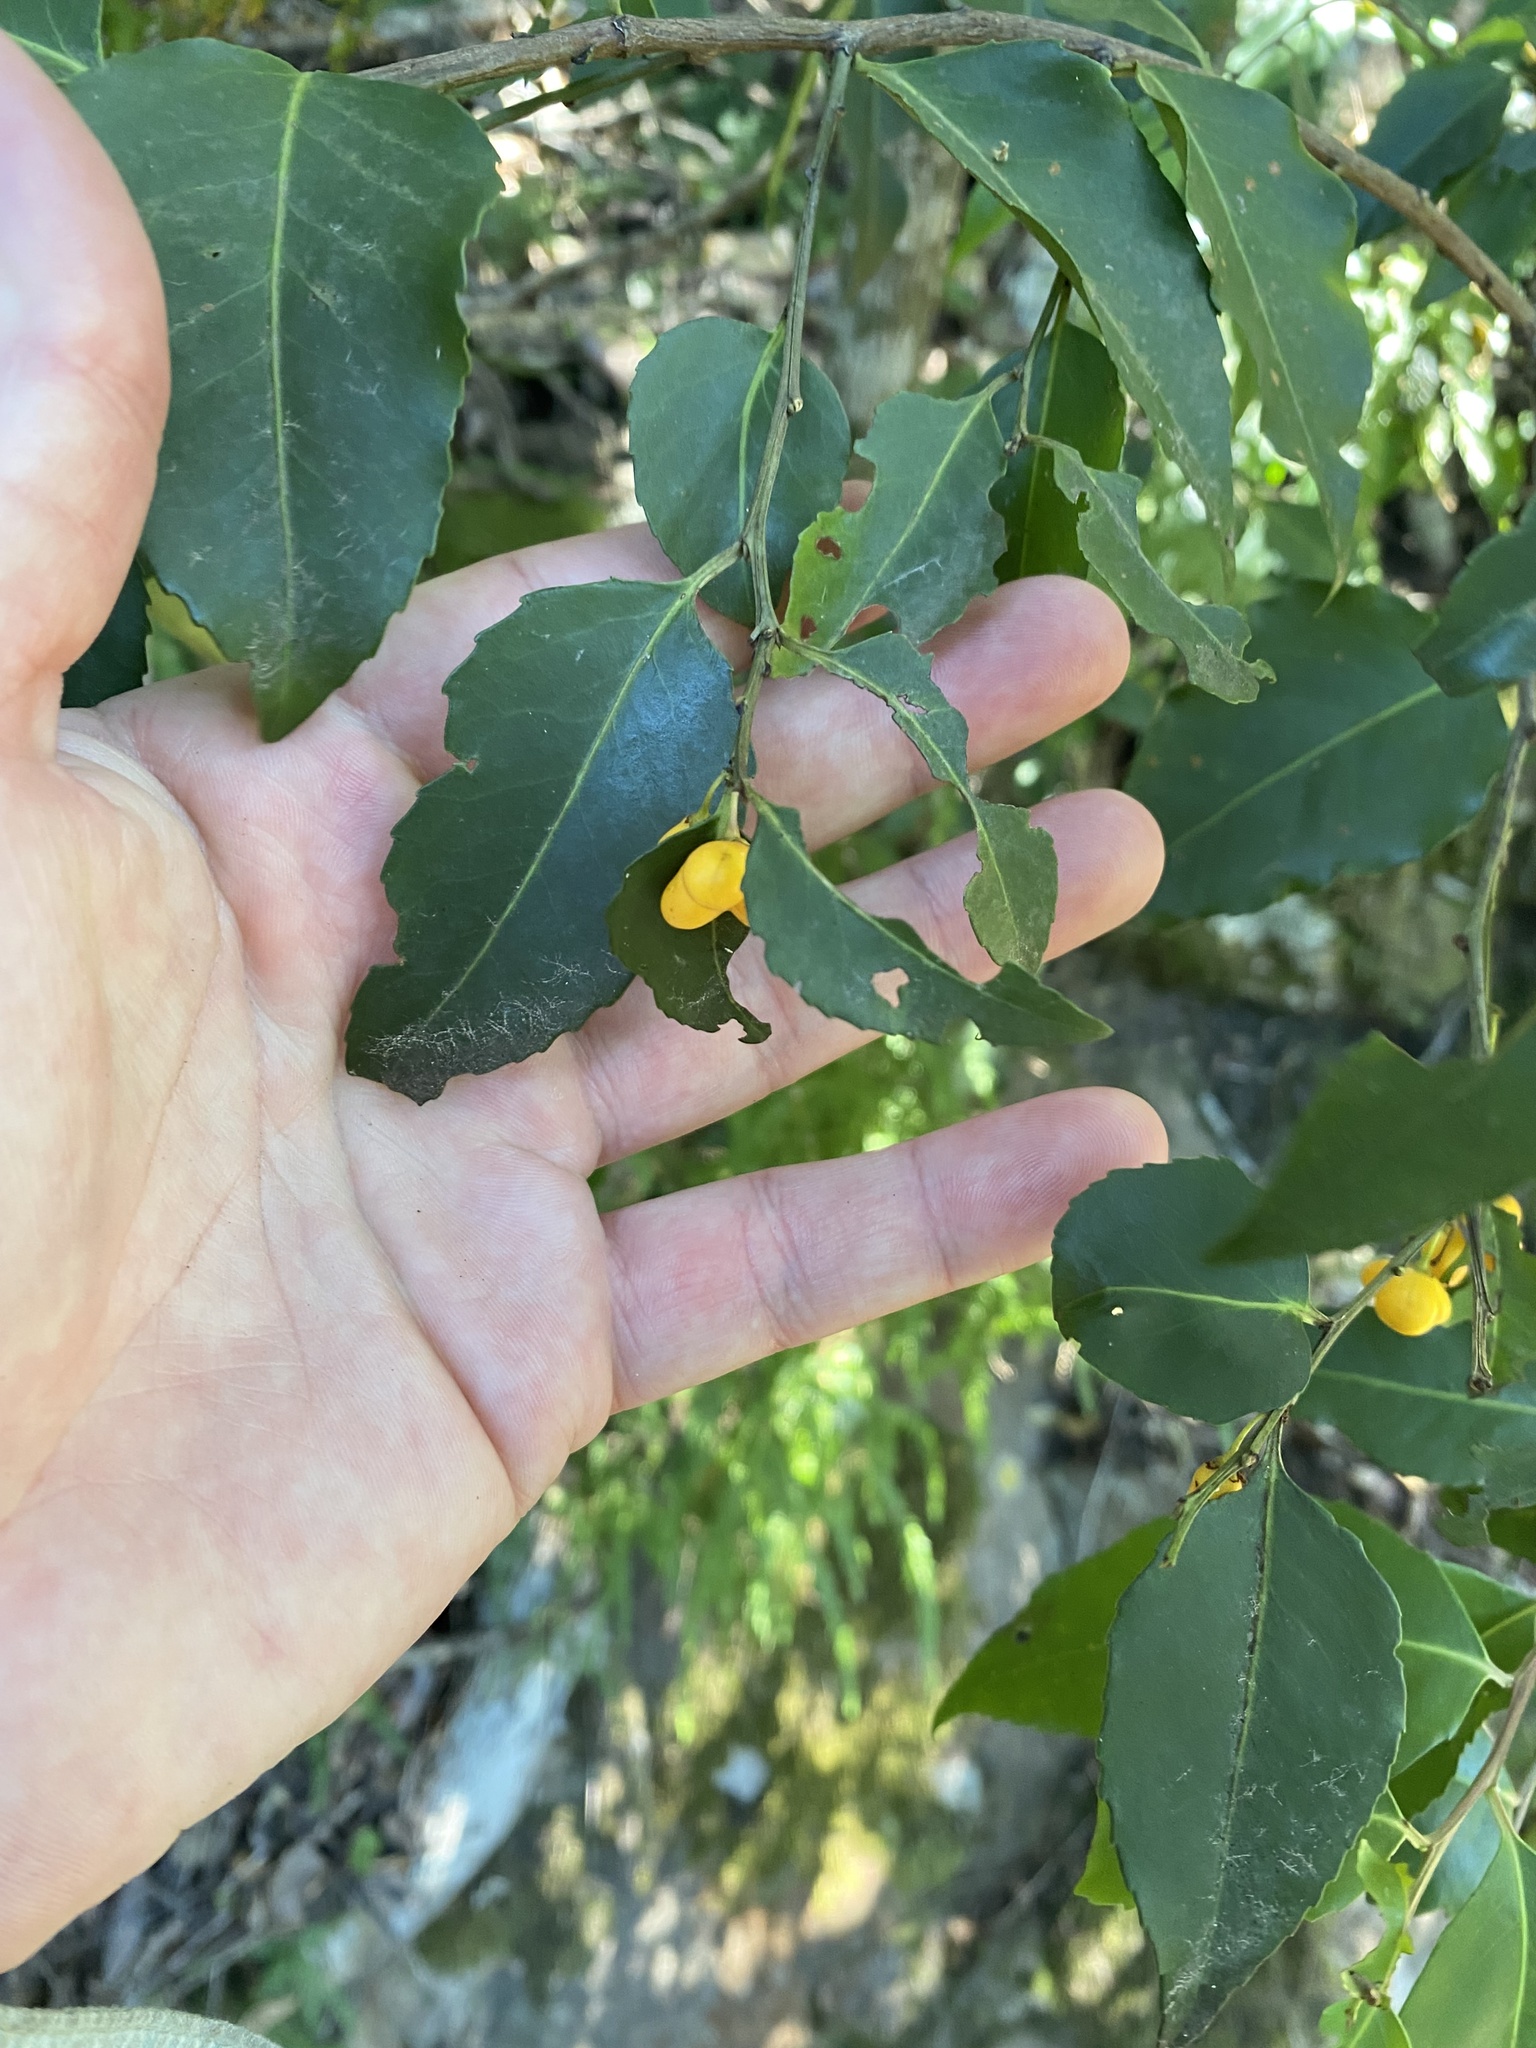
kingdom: Plantae
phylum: Tracheophyta
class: Magnoliopsida
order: Celastrales
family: Celastraceae
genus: Gymnosporia
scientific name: Gymnosporia acuminata
